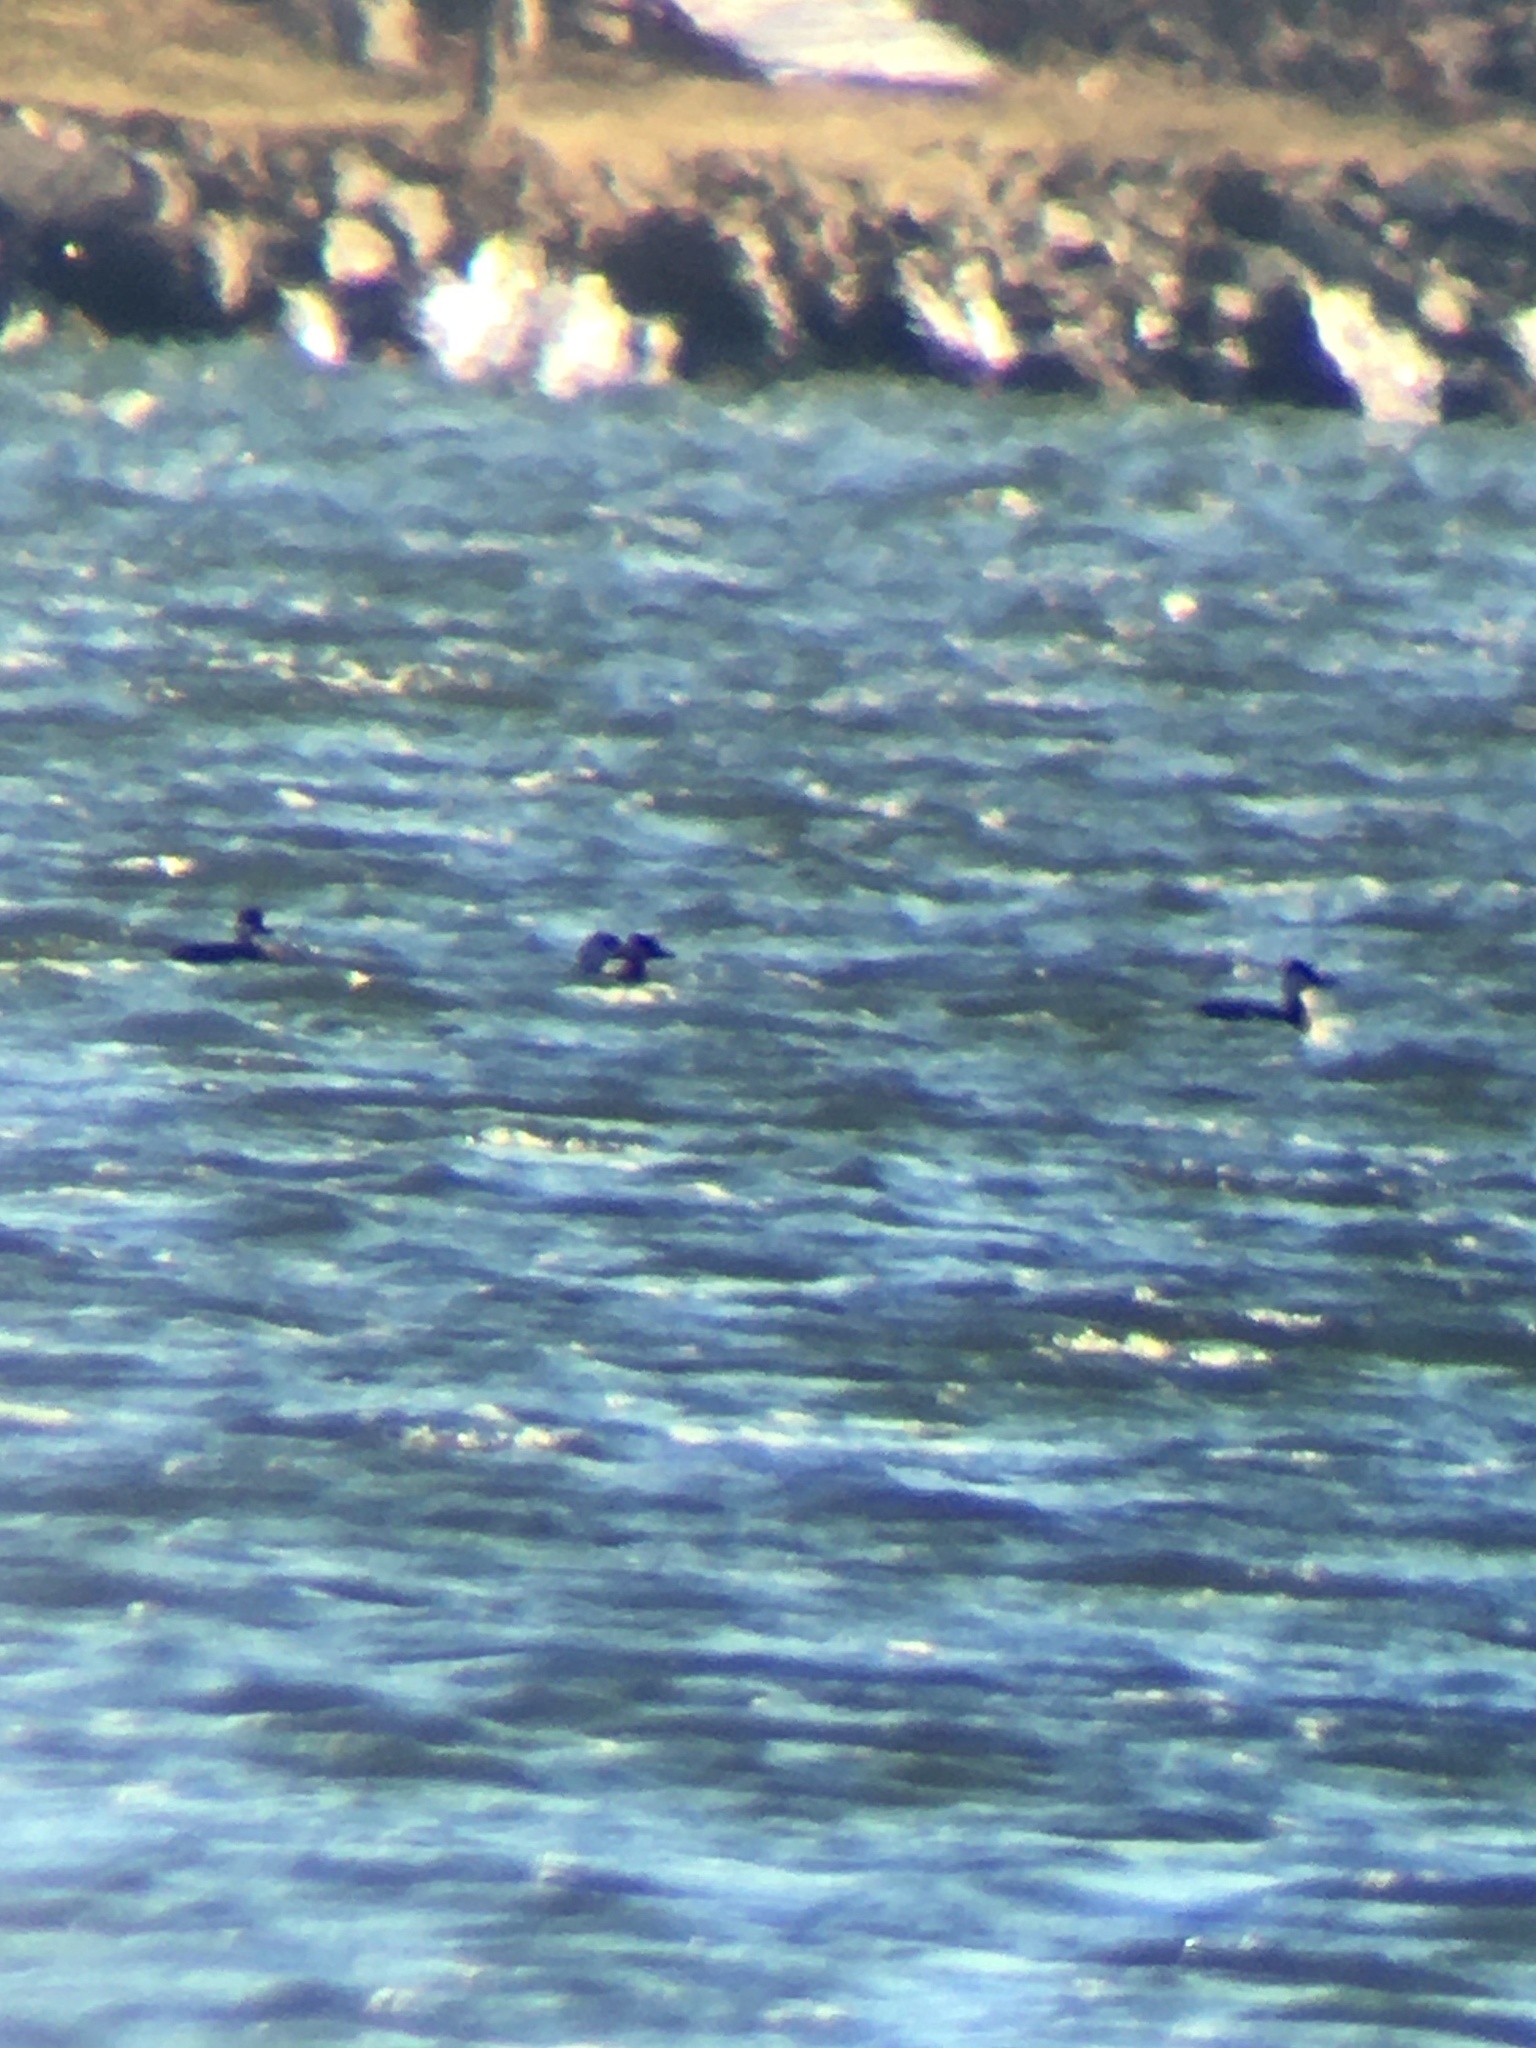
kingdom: Animalia
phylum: Chordata
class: Aves
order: Anseriformes
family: Anatidae
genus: Melanitta
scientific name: Melanitta americana
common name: Black scoter
